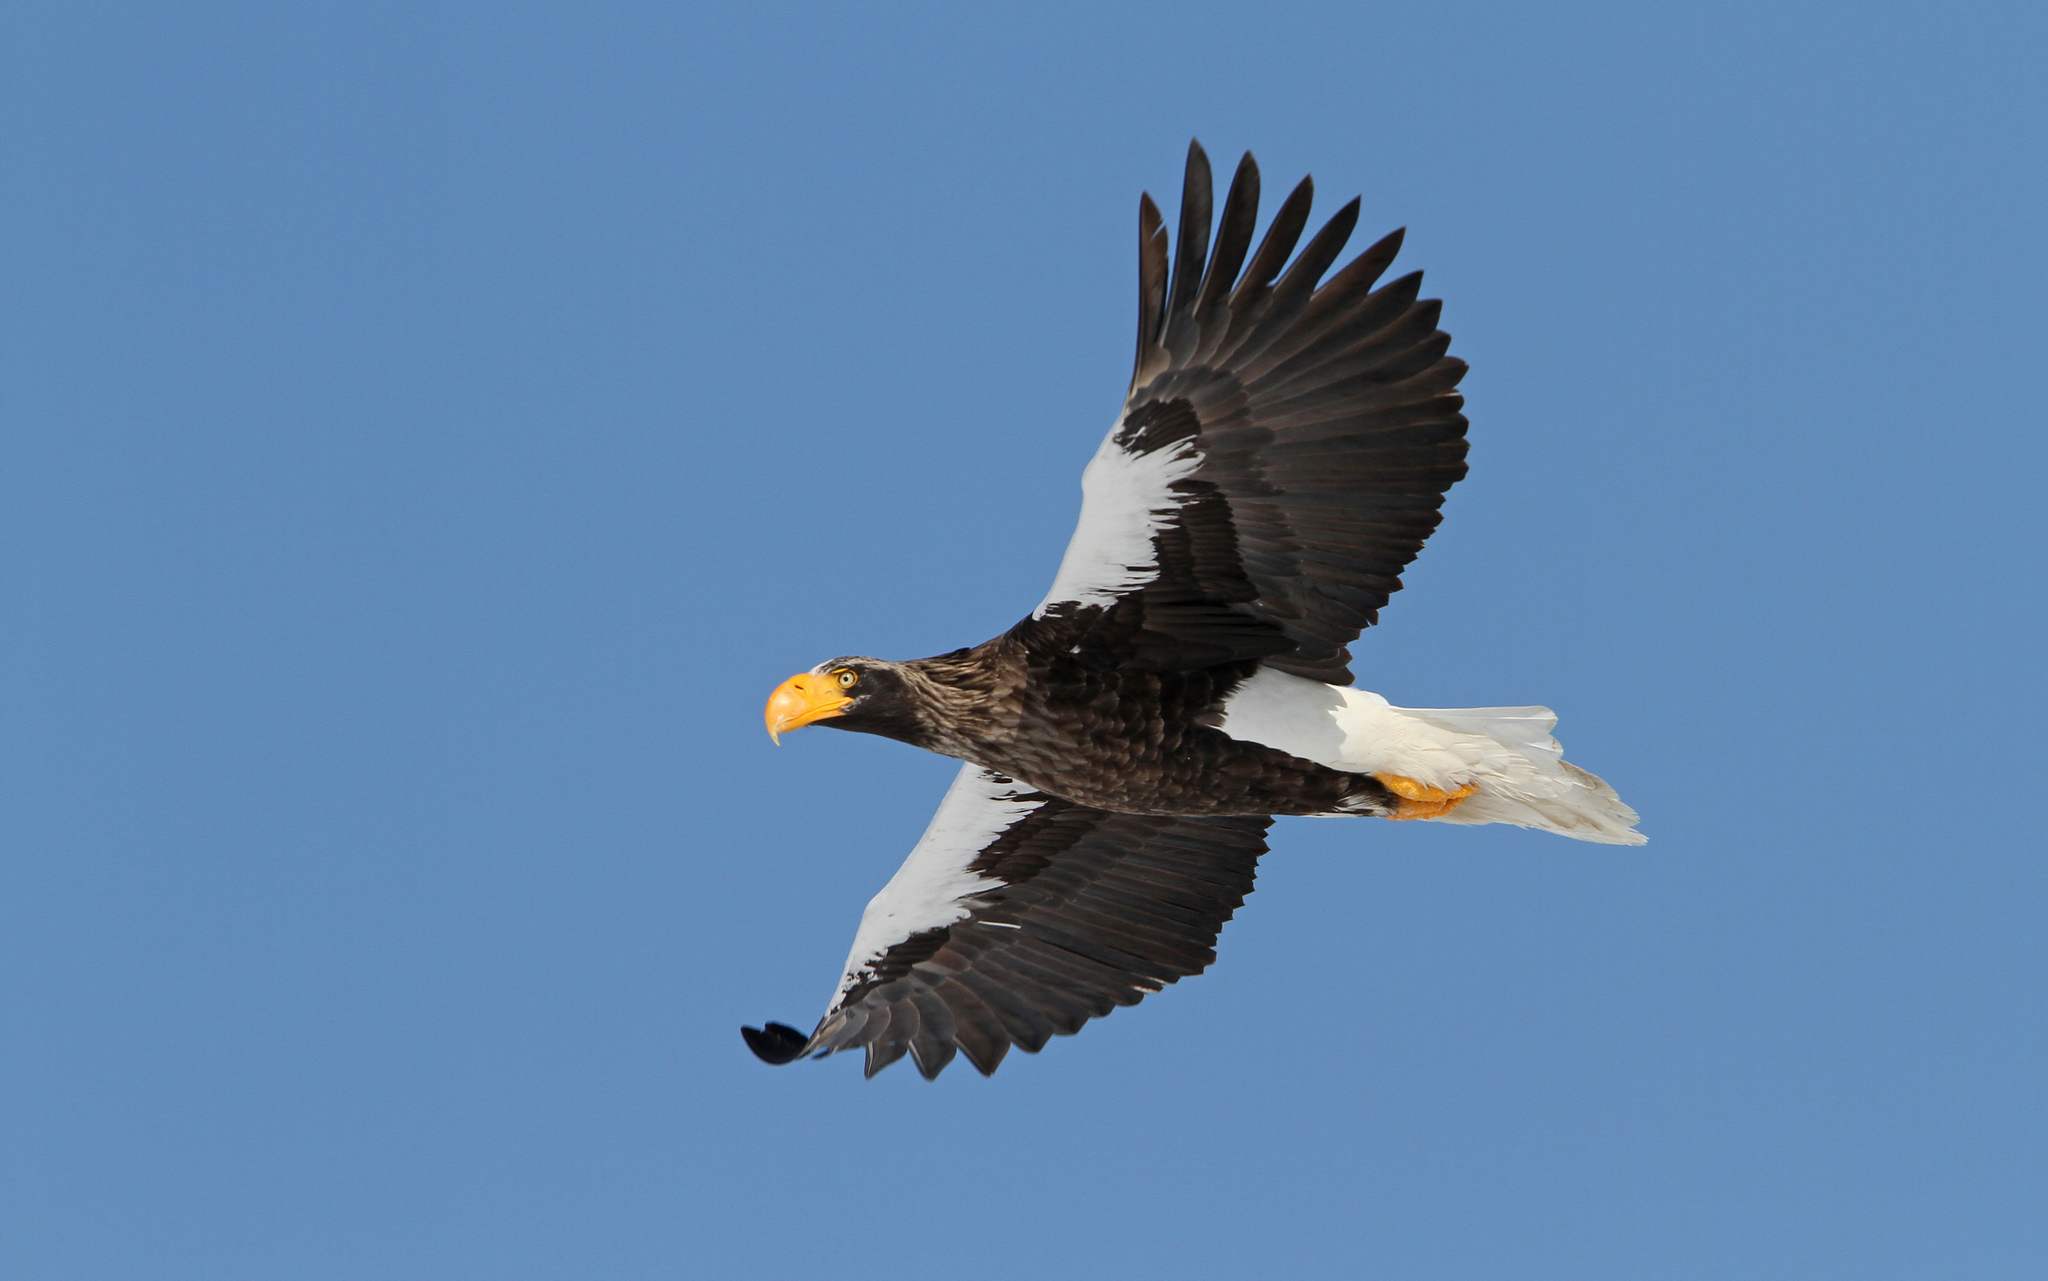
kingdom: Animalia
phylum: Chordata
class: Aves
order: Accipitriformes
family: Accipitridae
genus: Haliaeetus
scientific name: Haliaeetus pelagicus
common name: Steller's sea eagle
